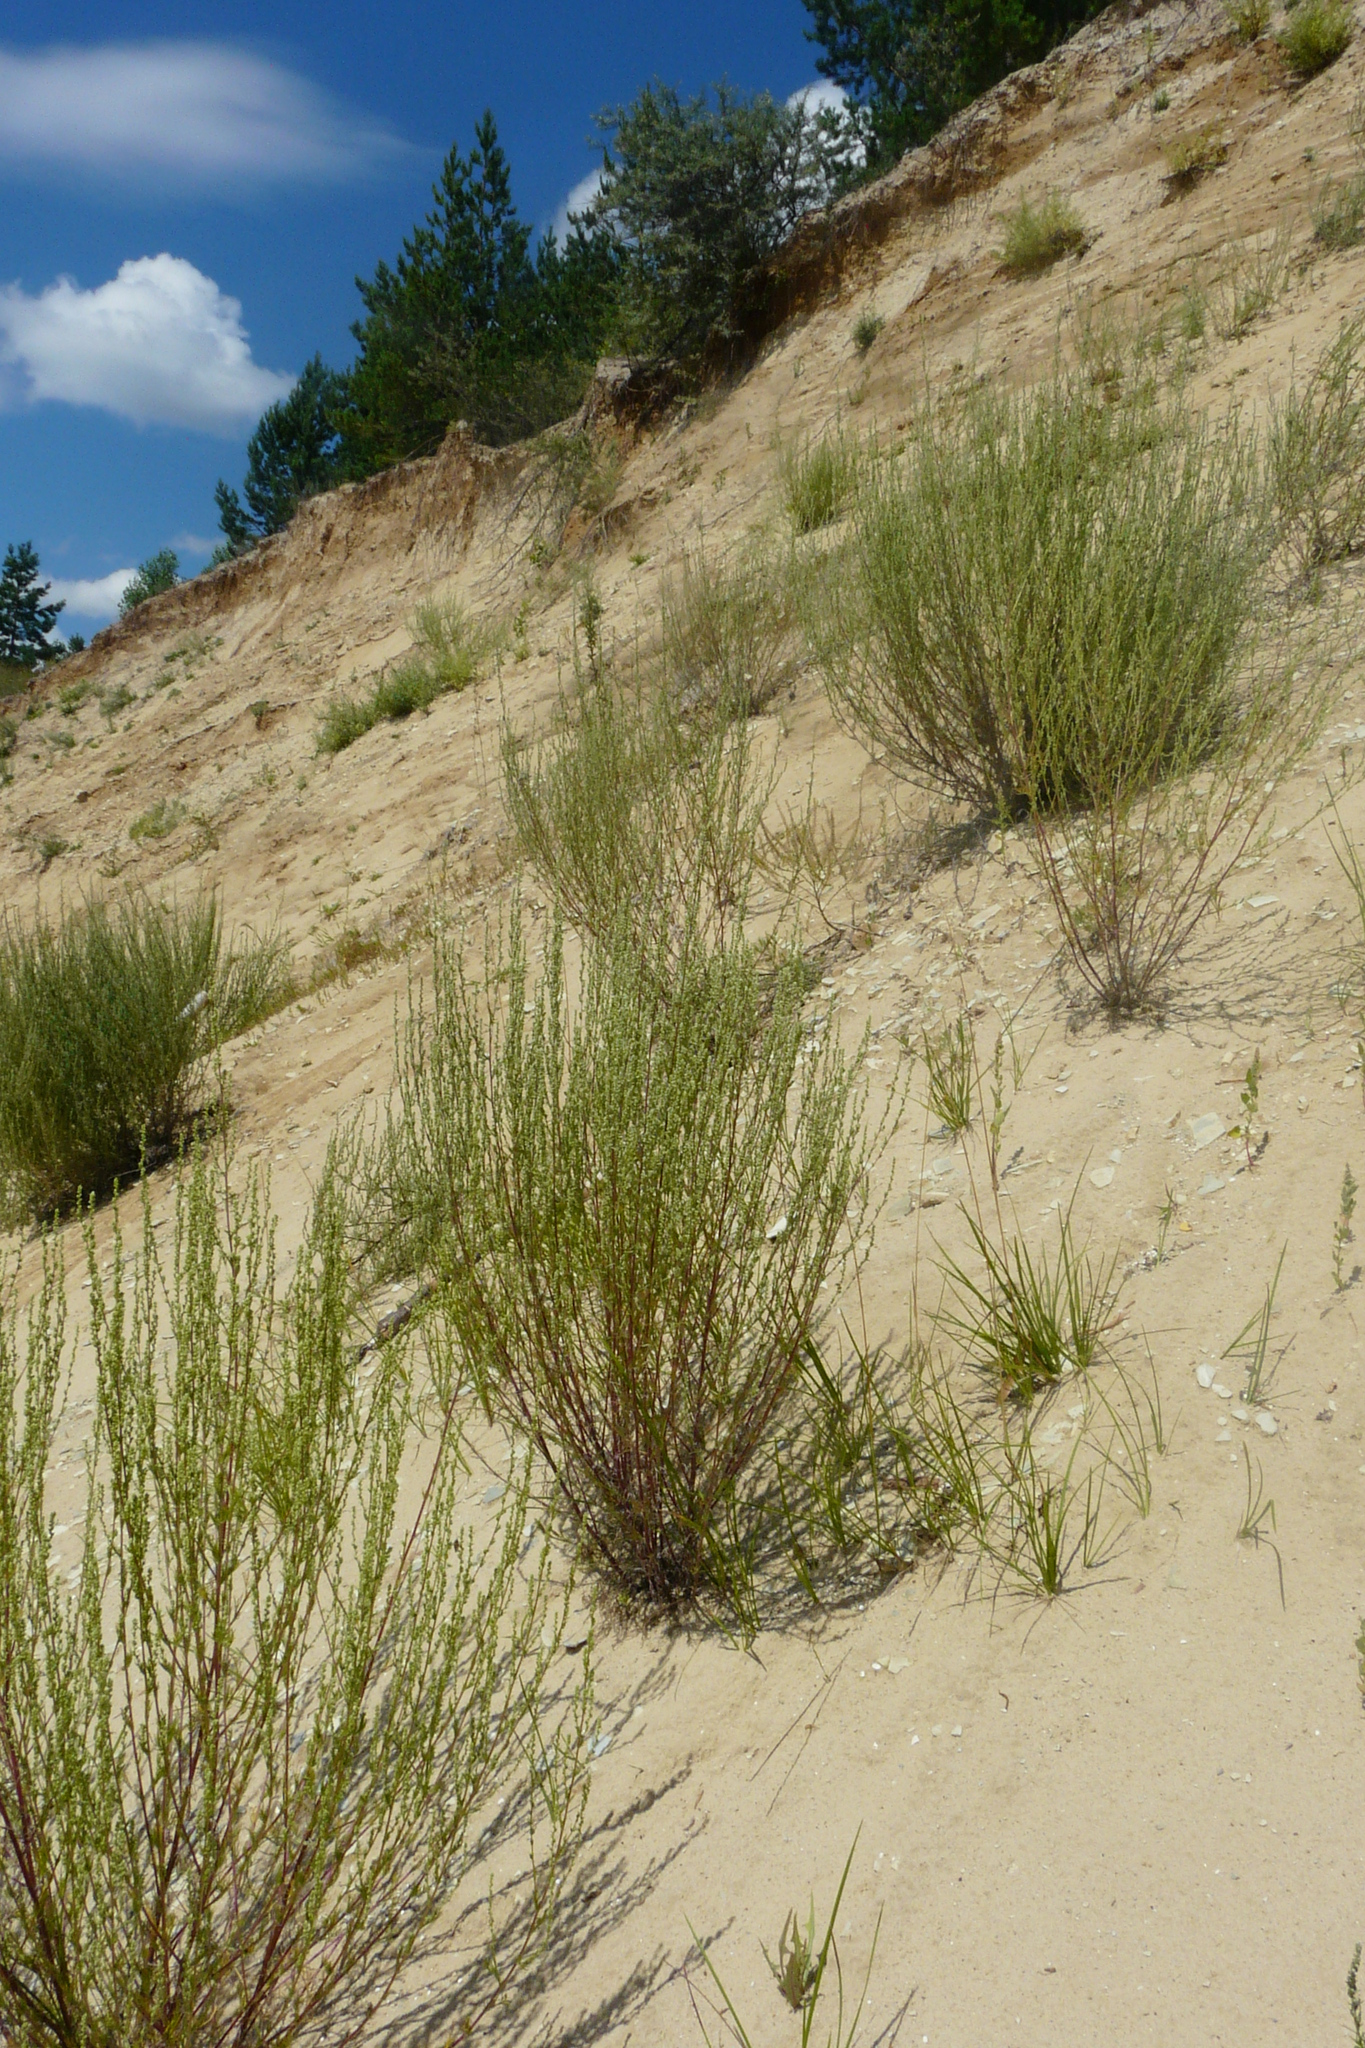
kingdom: Plantae
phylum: Tracheophyta
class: Magnoliopsida
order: Asterales
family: Asteraceae
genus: Artemisia
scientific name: Artemisia campestris
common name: Field wormwood
